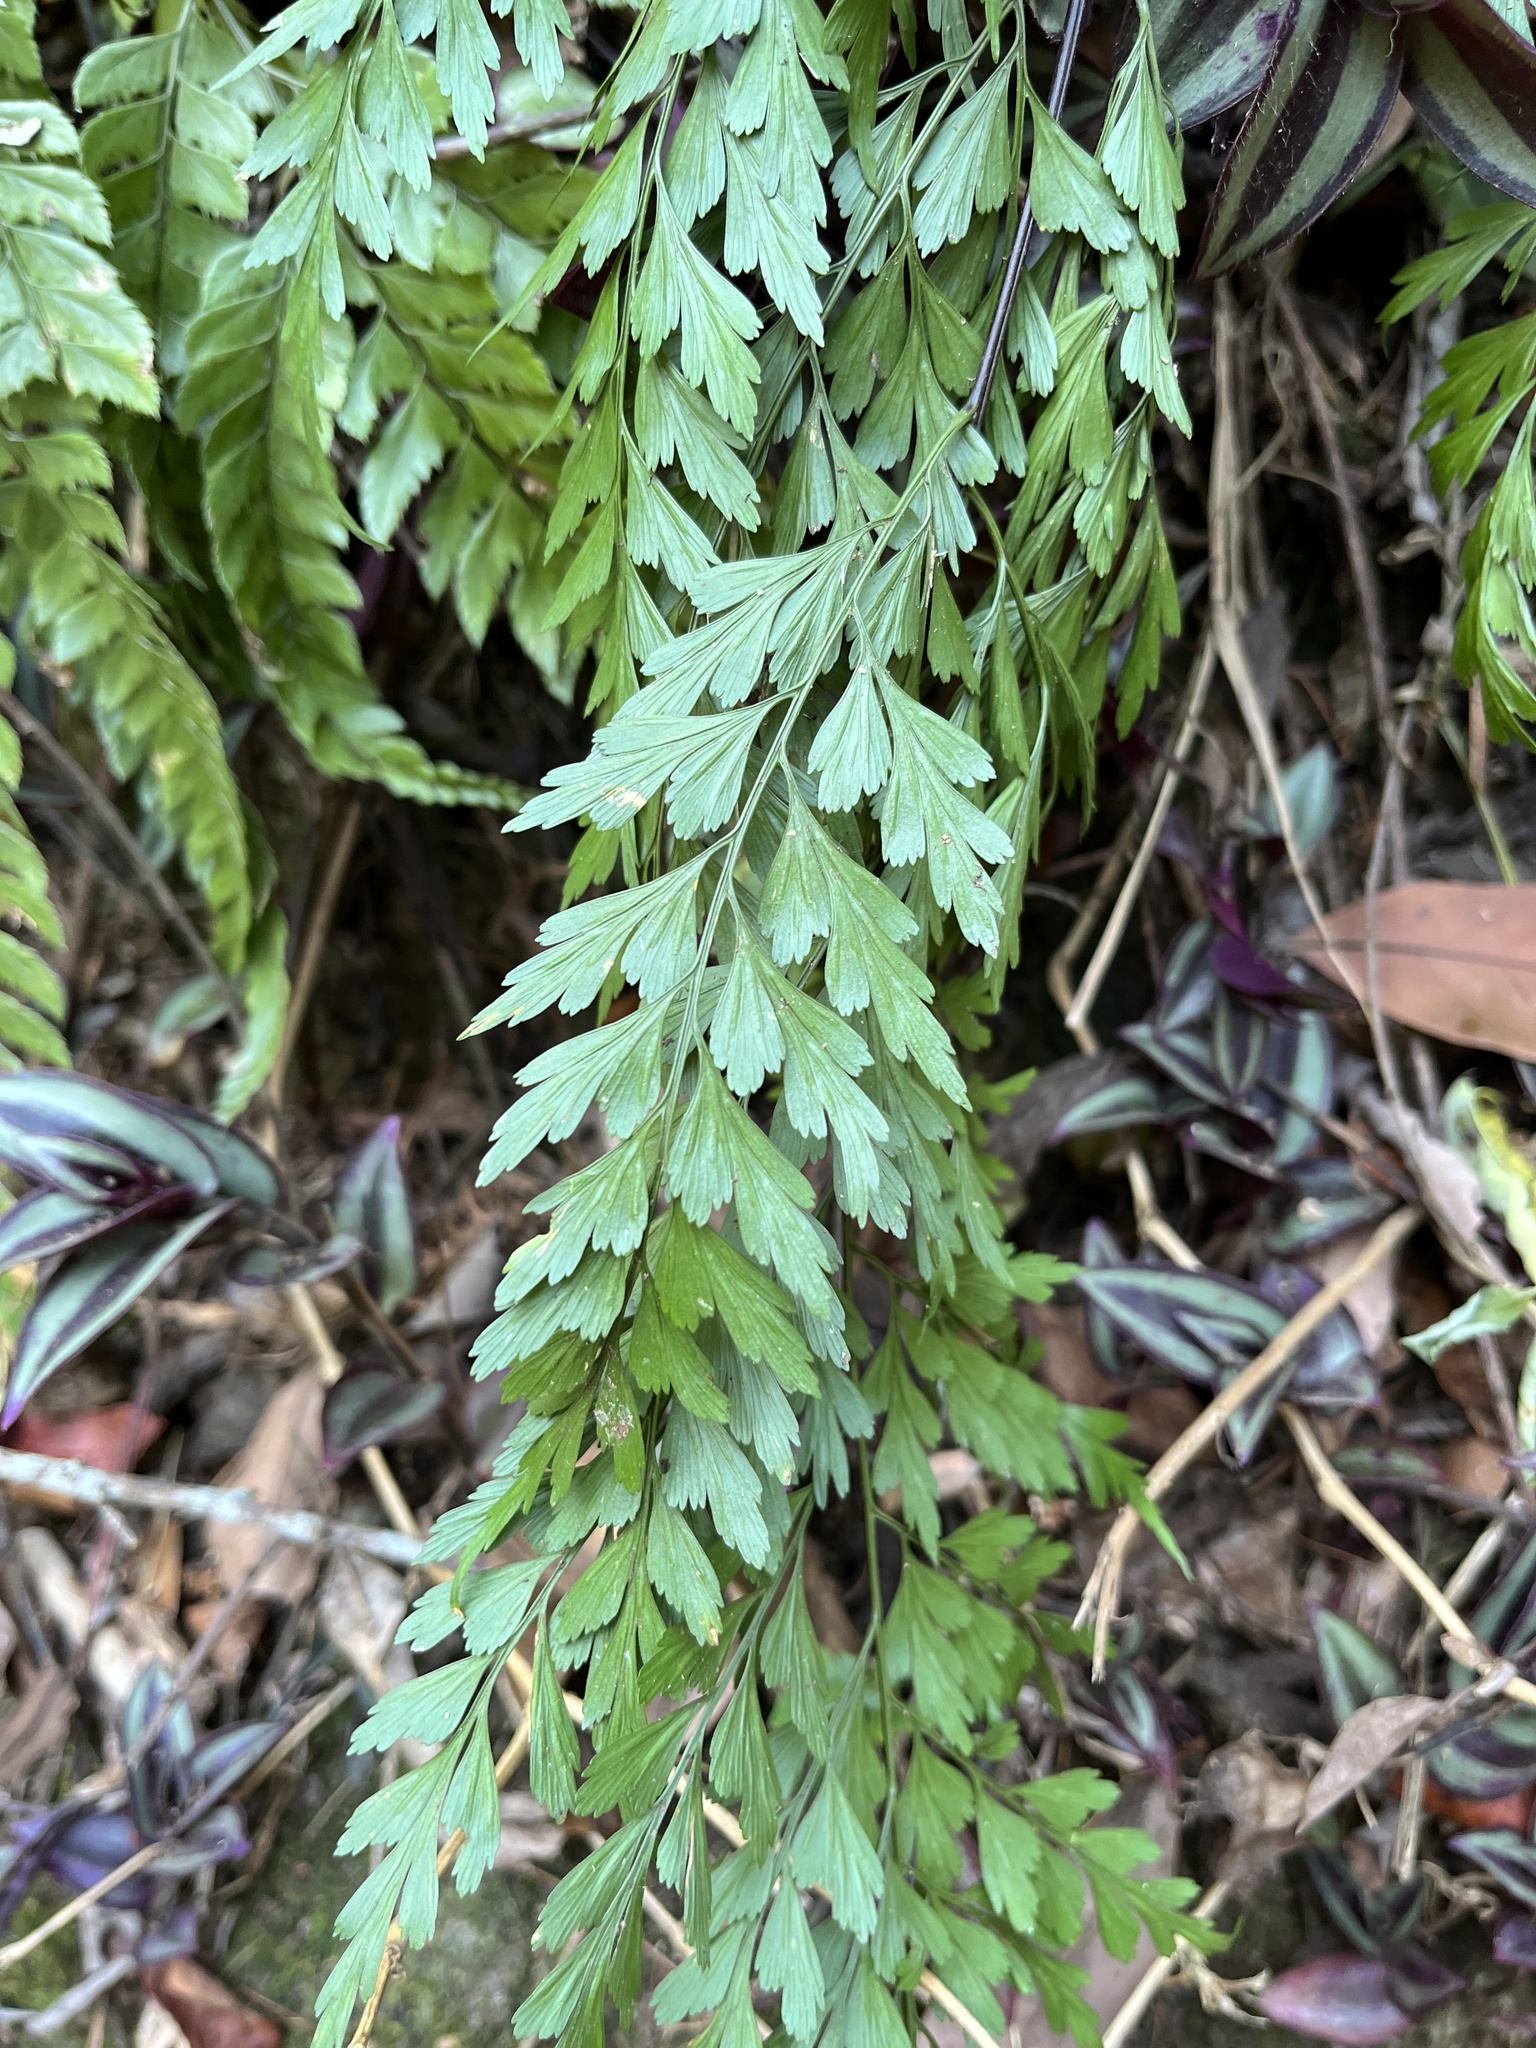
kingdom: Plantae
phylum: Tracheophyta
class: Polypodiopsida
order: Polypodiales
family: Aspleniaceae
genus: Asplenium
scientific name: Asplenium pseudolaserpitiifolium
